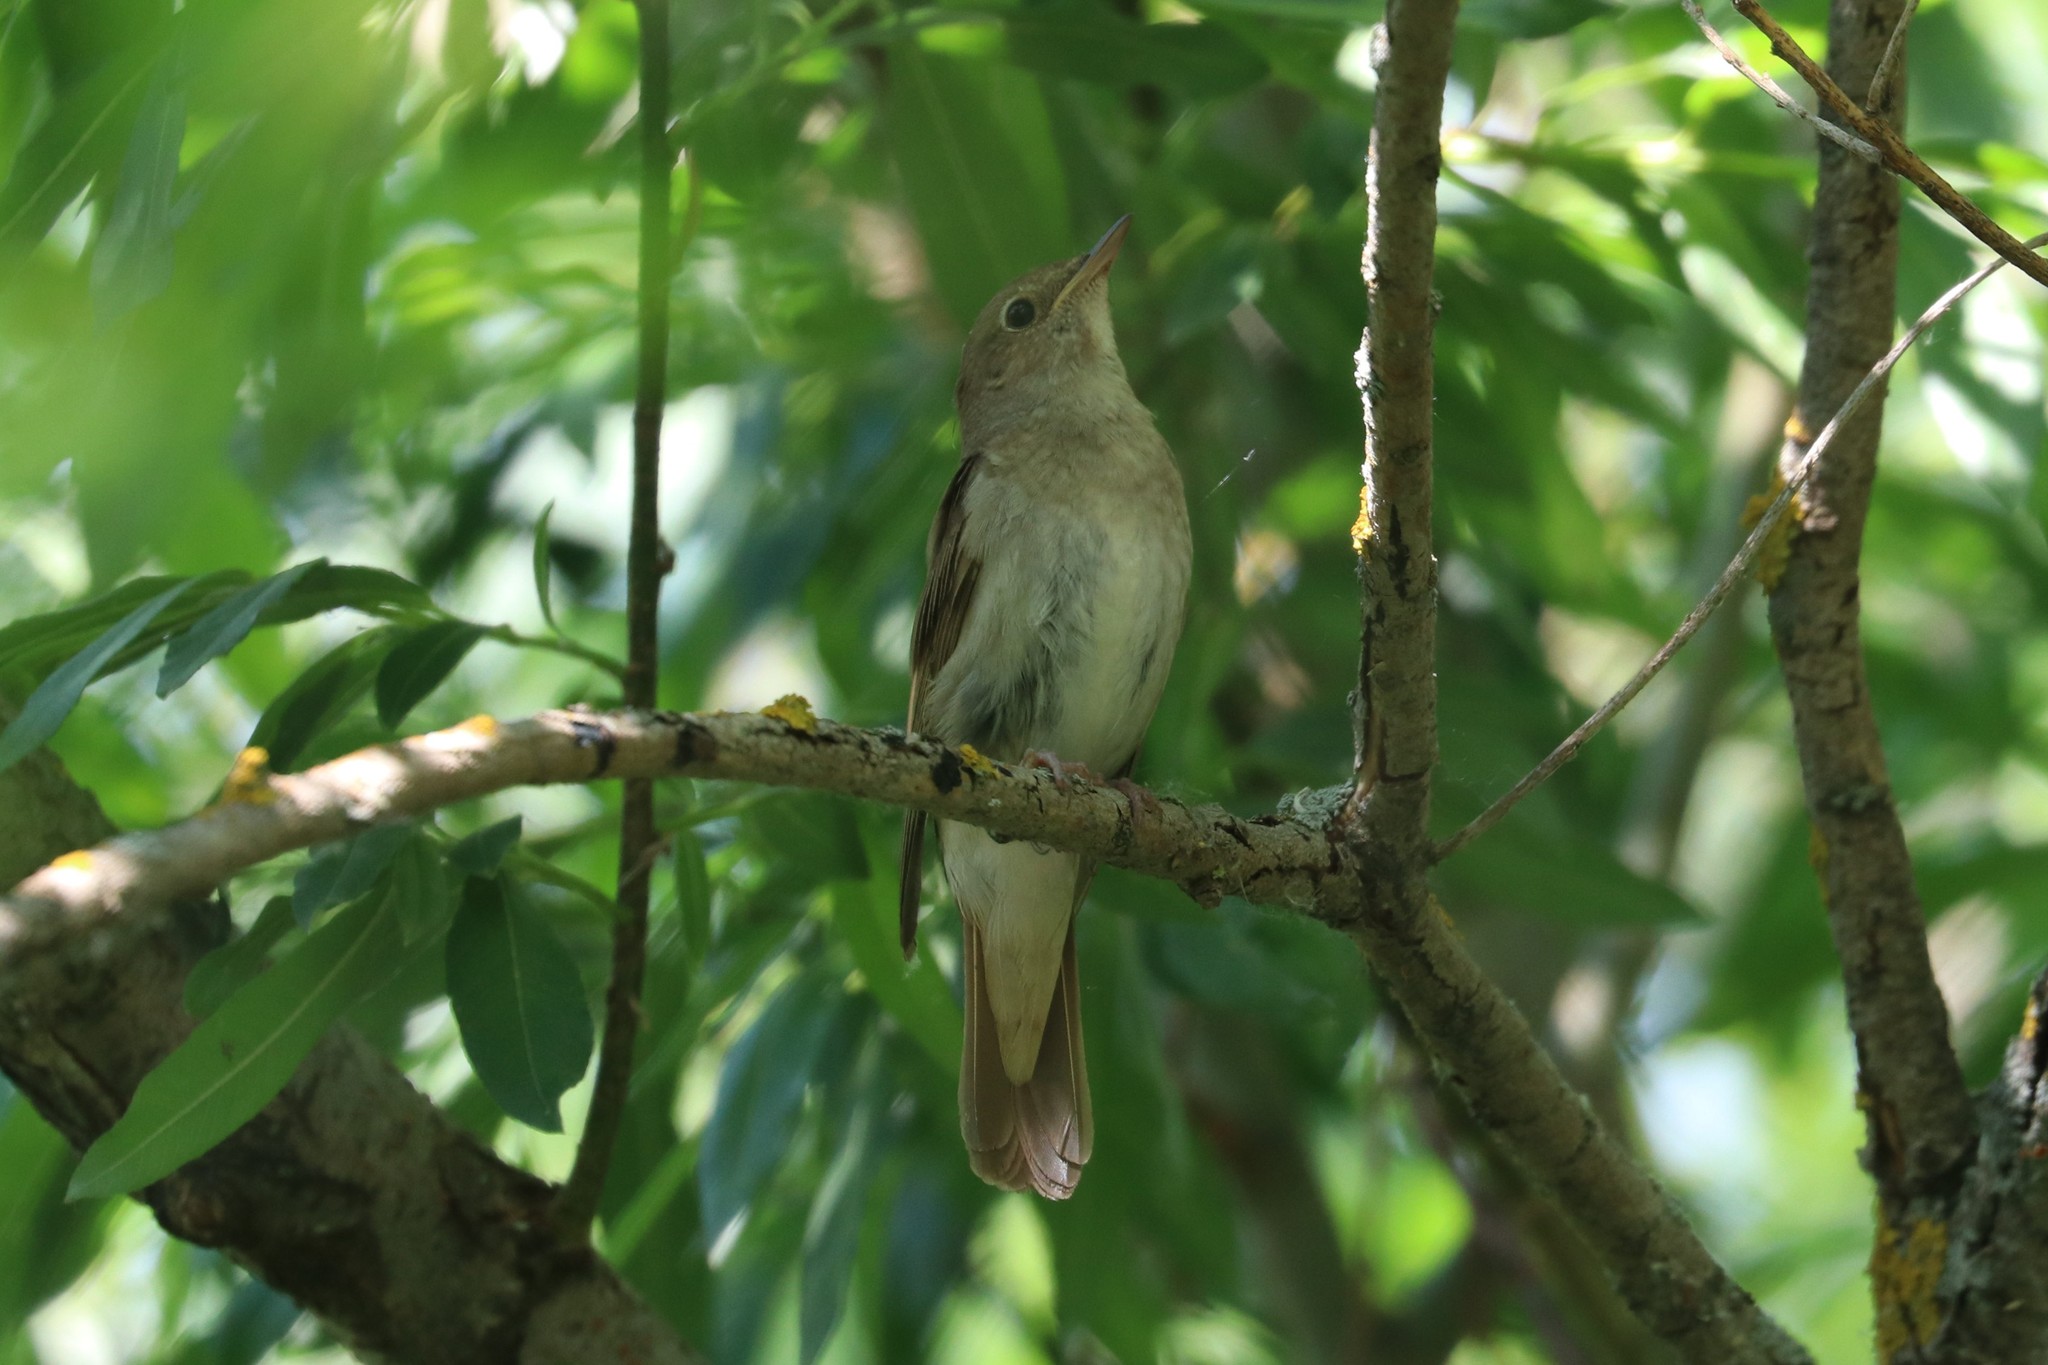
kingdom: Animalia
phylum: Chordata
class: Aves
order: Passeriformes
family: Muscicapidae
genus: Luscinia
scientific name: Luscinia luscinia
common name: Thrush nightingale
